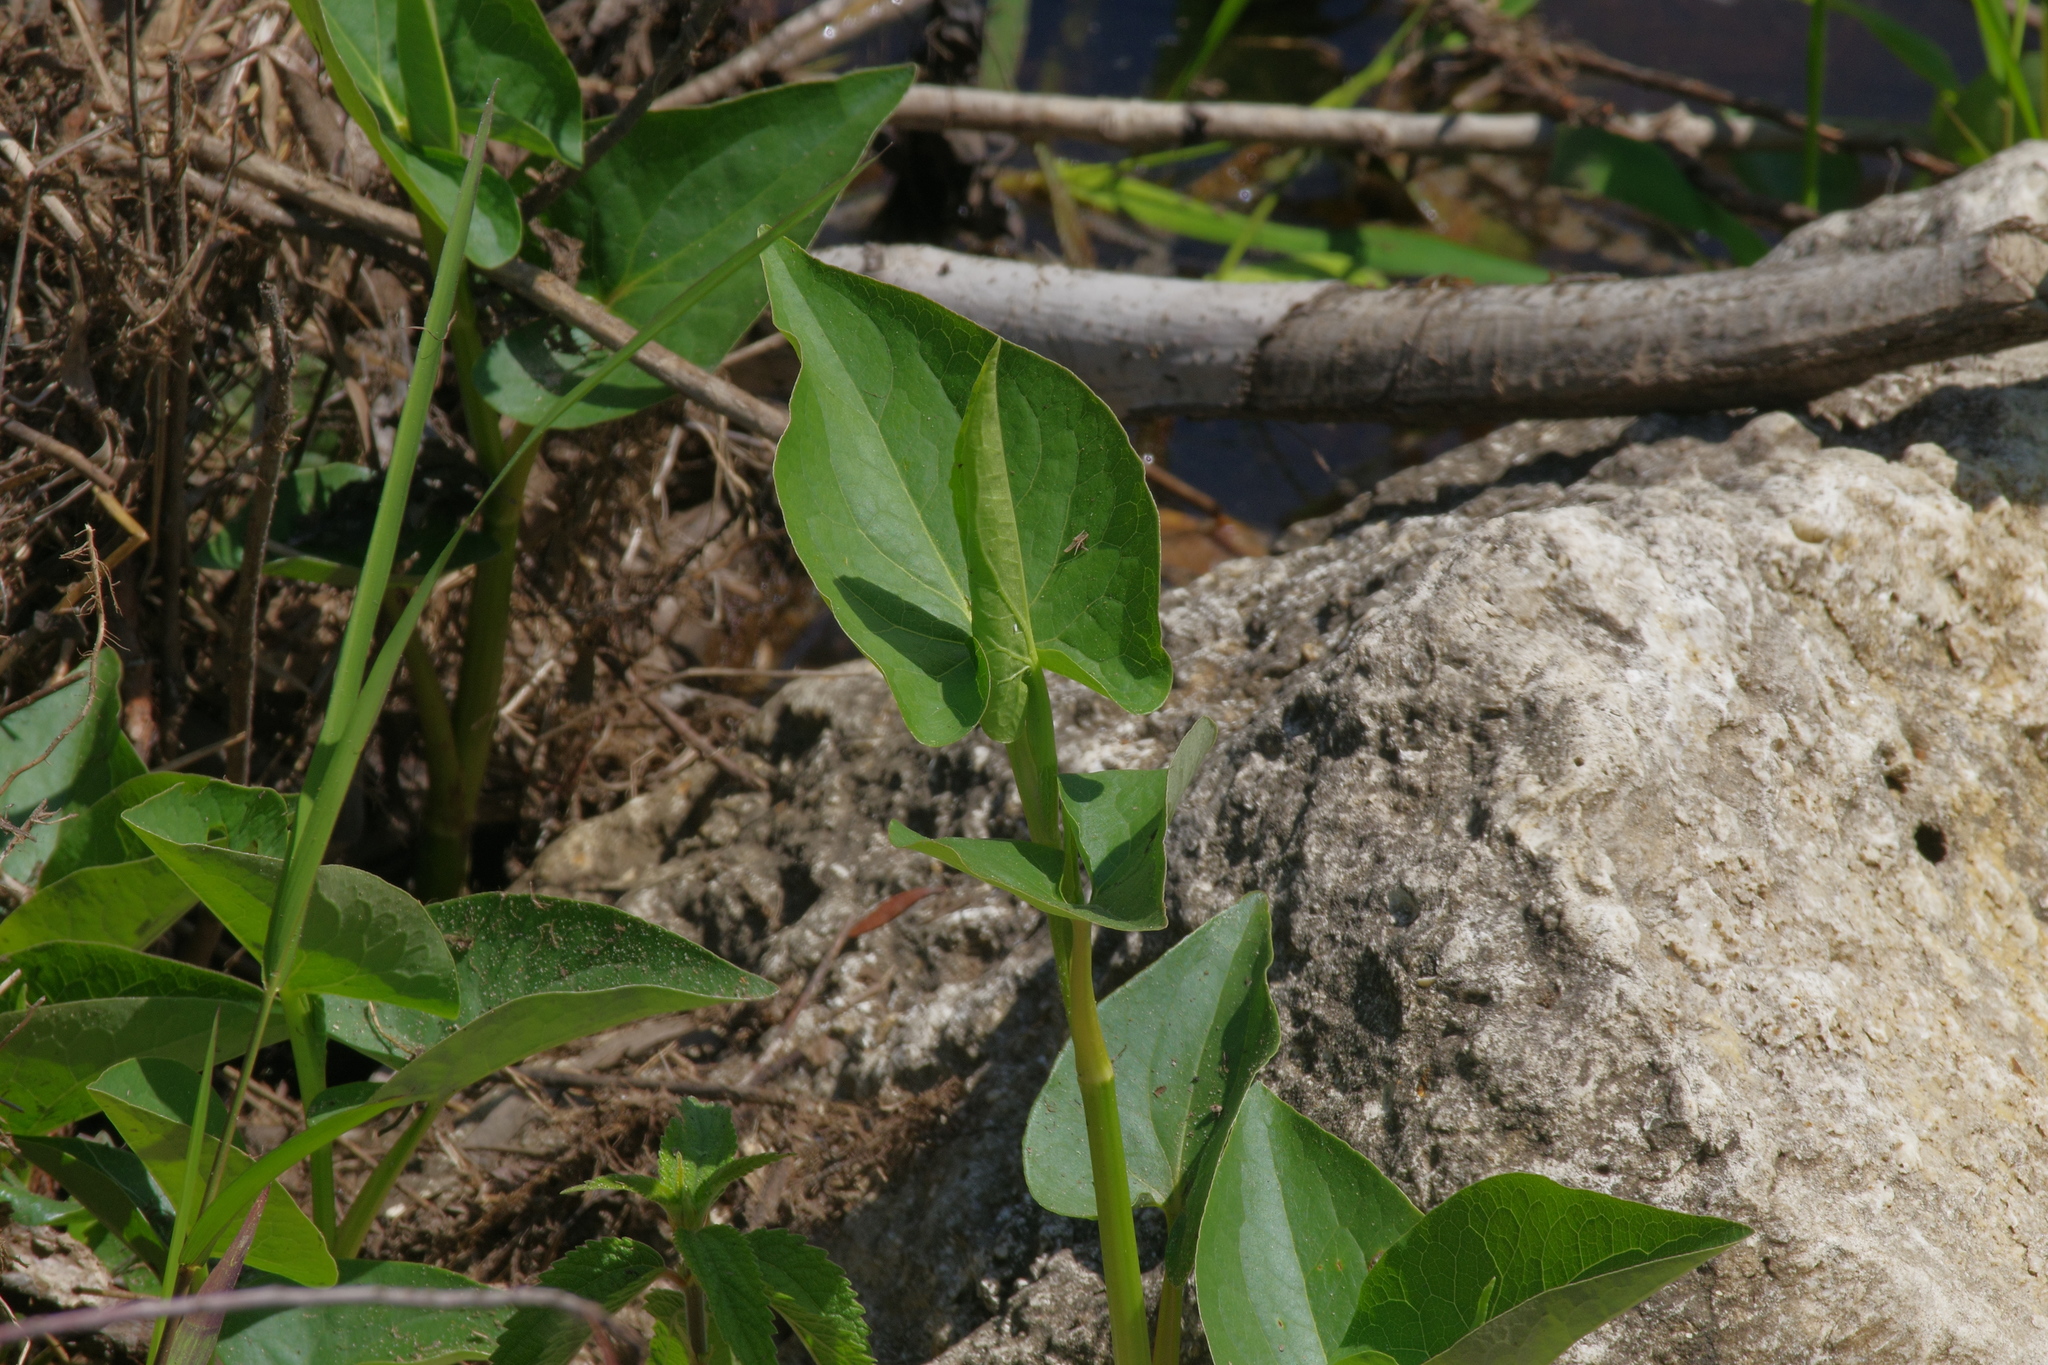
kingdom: Plantae
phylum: Tracheophyta
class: Magnoliopsida
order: Piperales
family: Saururaceae
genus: Saururus
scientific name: Saururus cernuus
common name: Lizard's-tail
